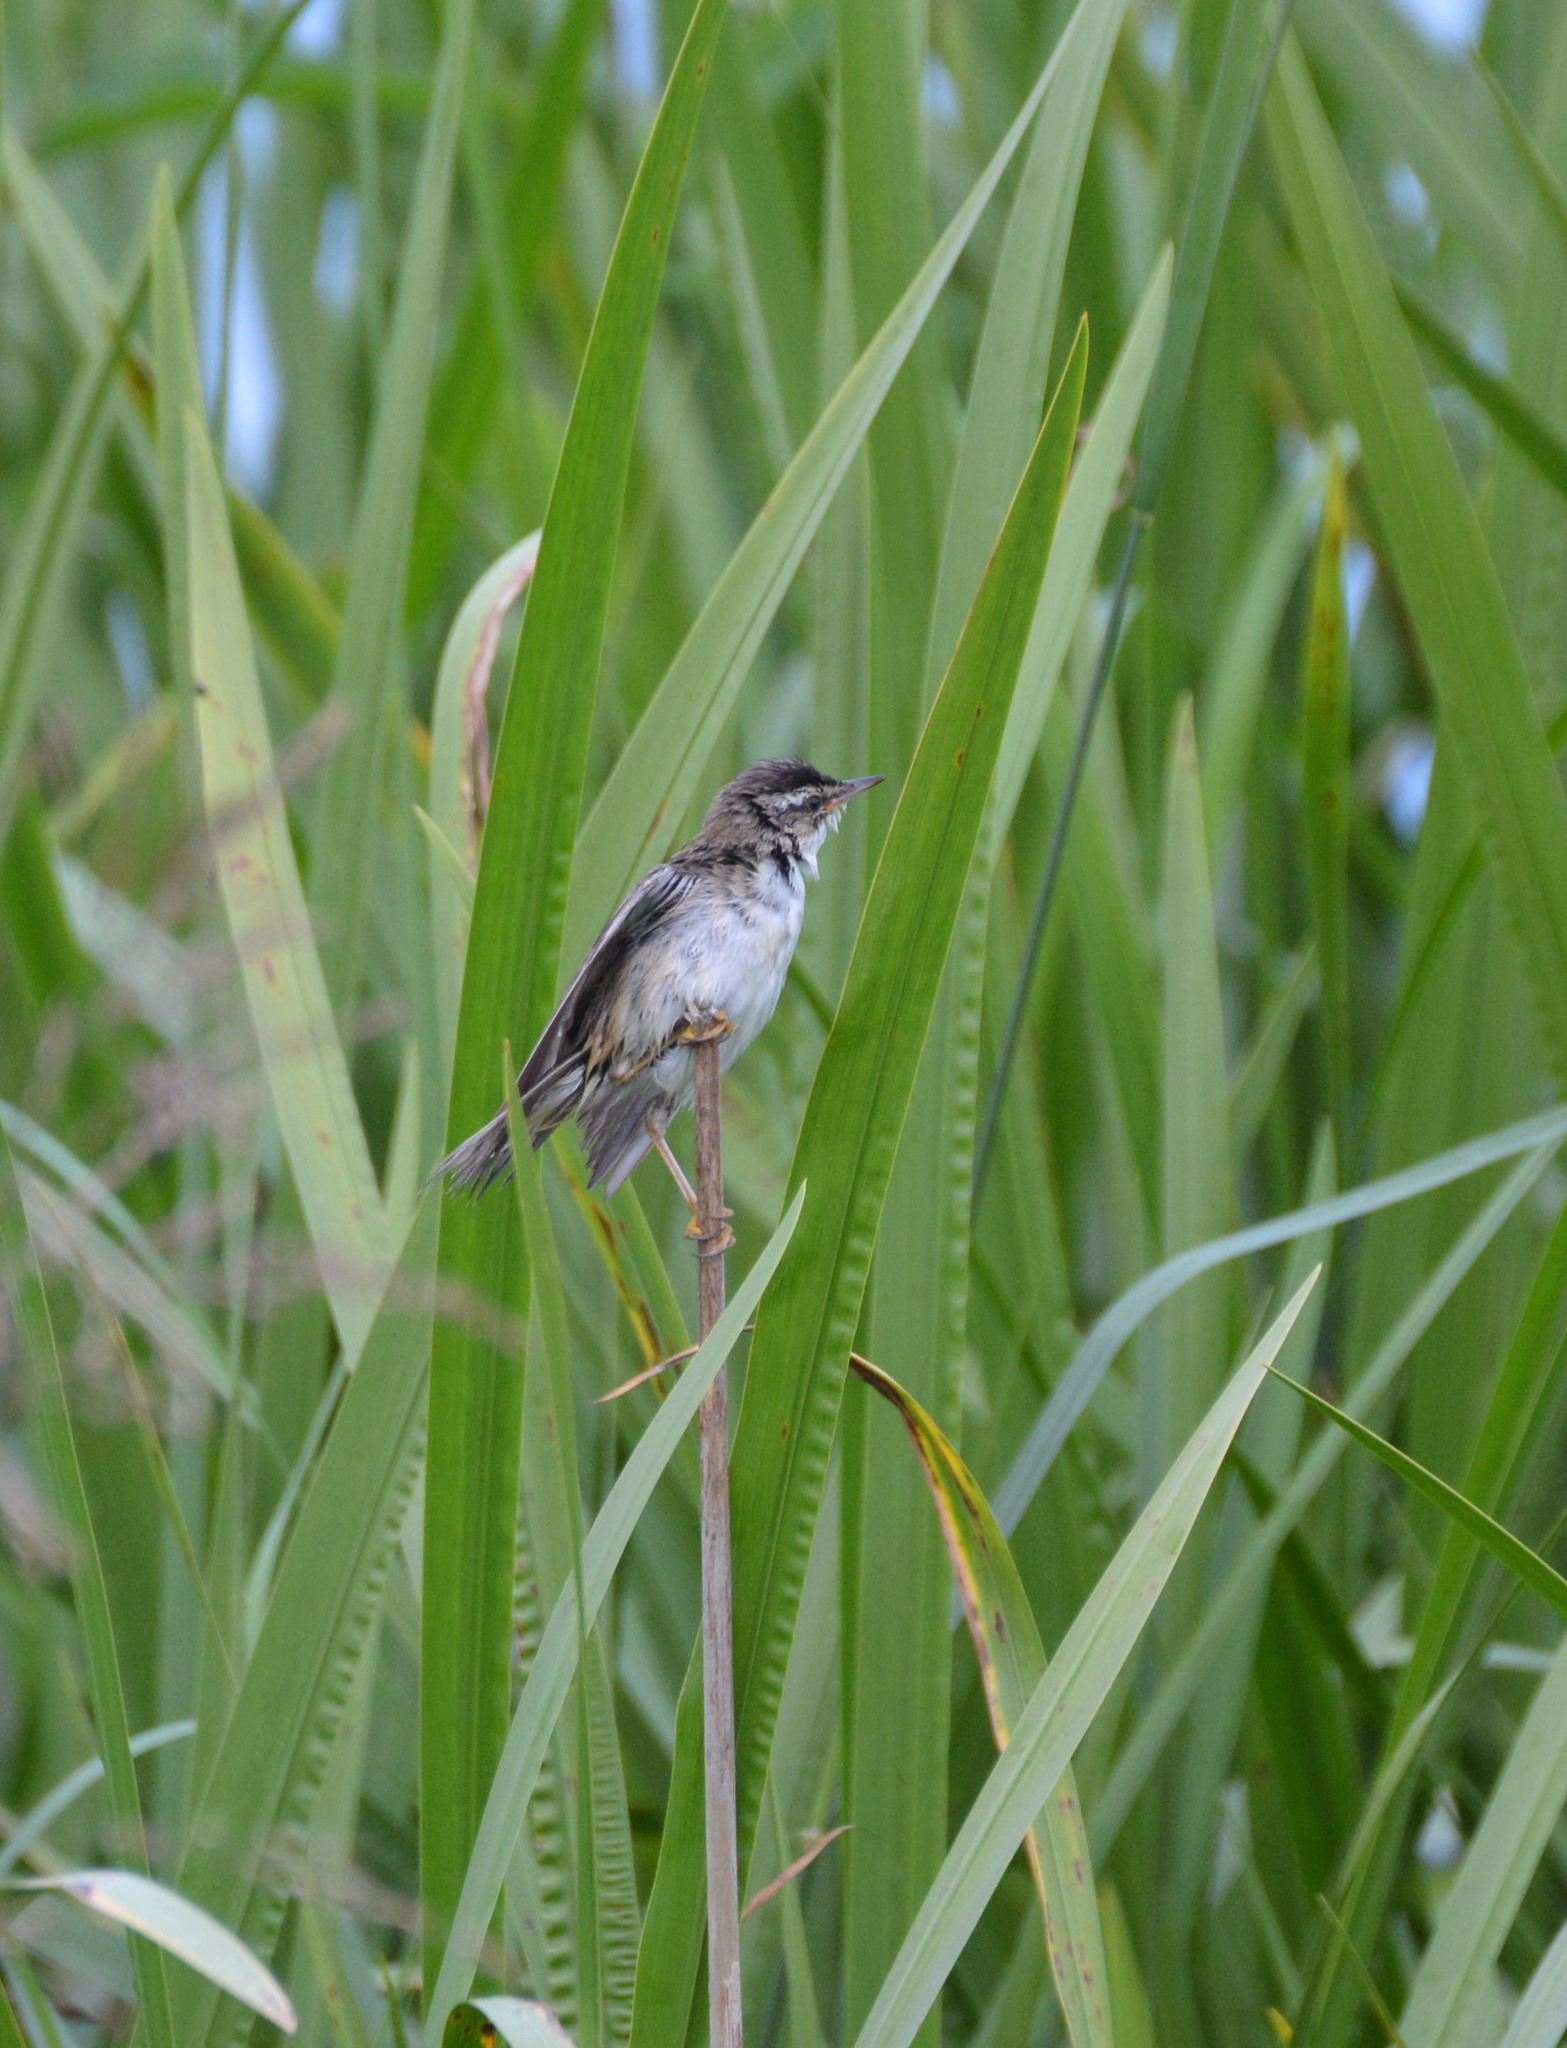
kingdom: Animalia
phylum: Chordata
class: Aves
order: Passeriformes
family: Acrocephalidae
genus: Acrocephalus
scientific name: Acrocephalus schoenobaenus
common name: Sedge warbler
